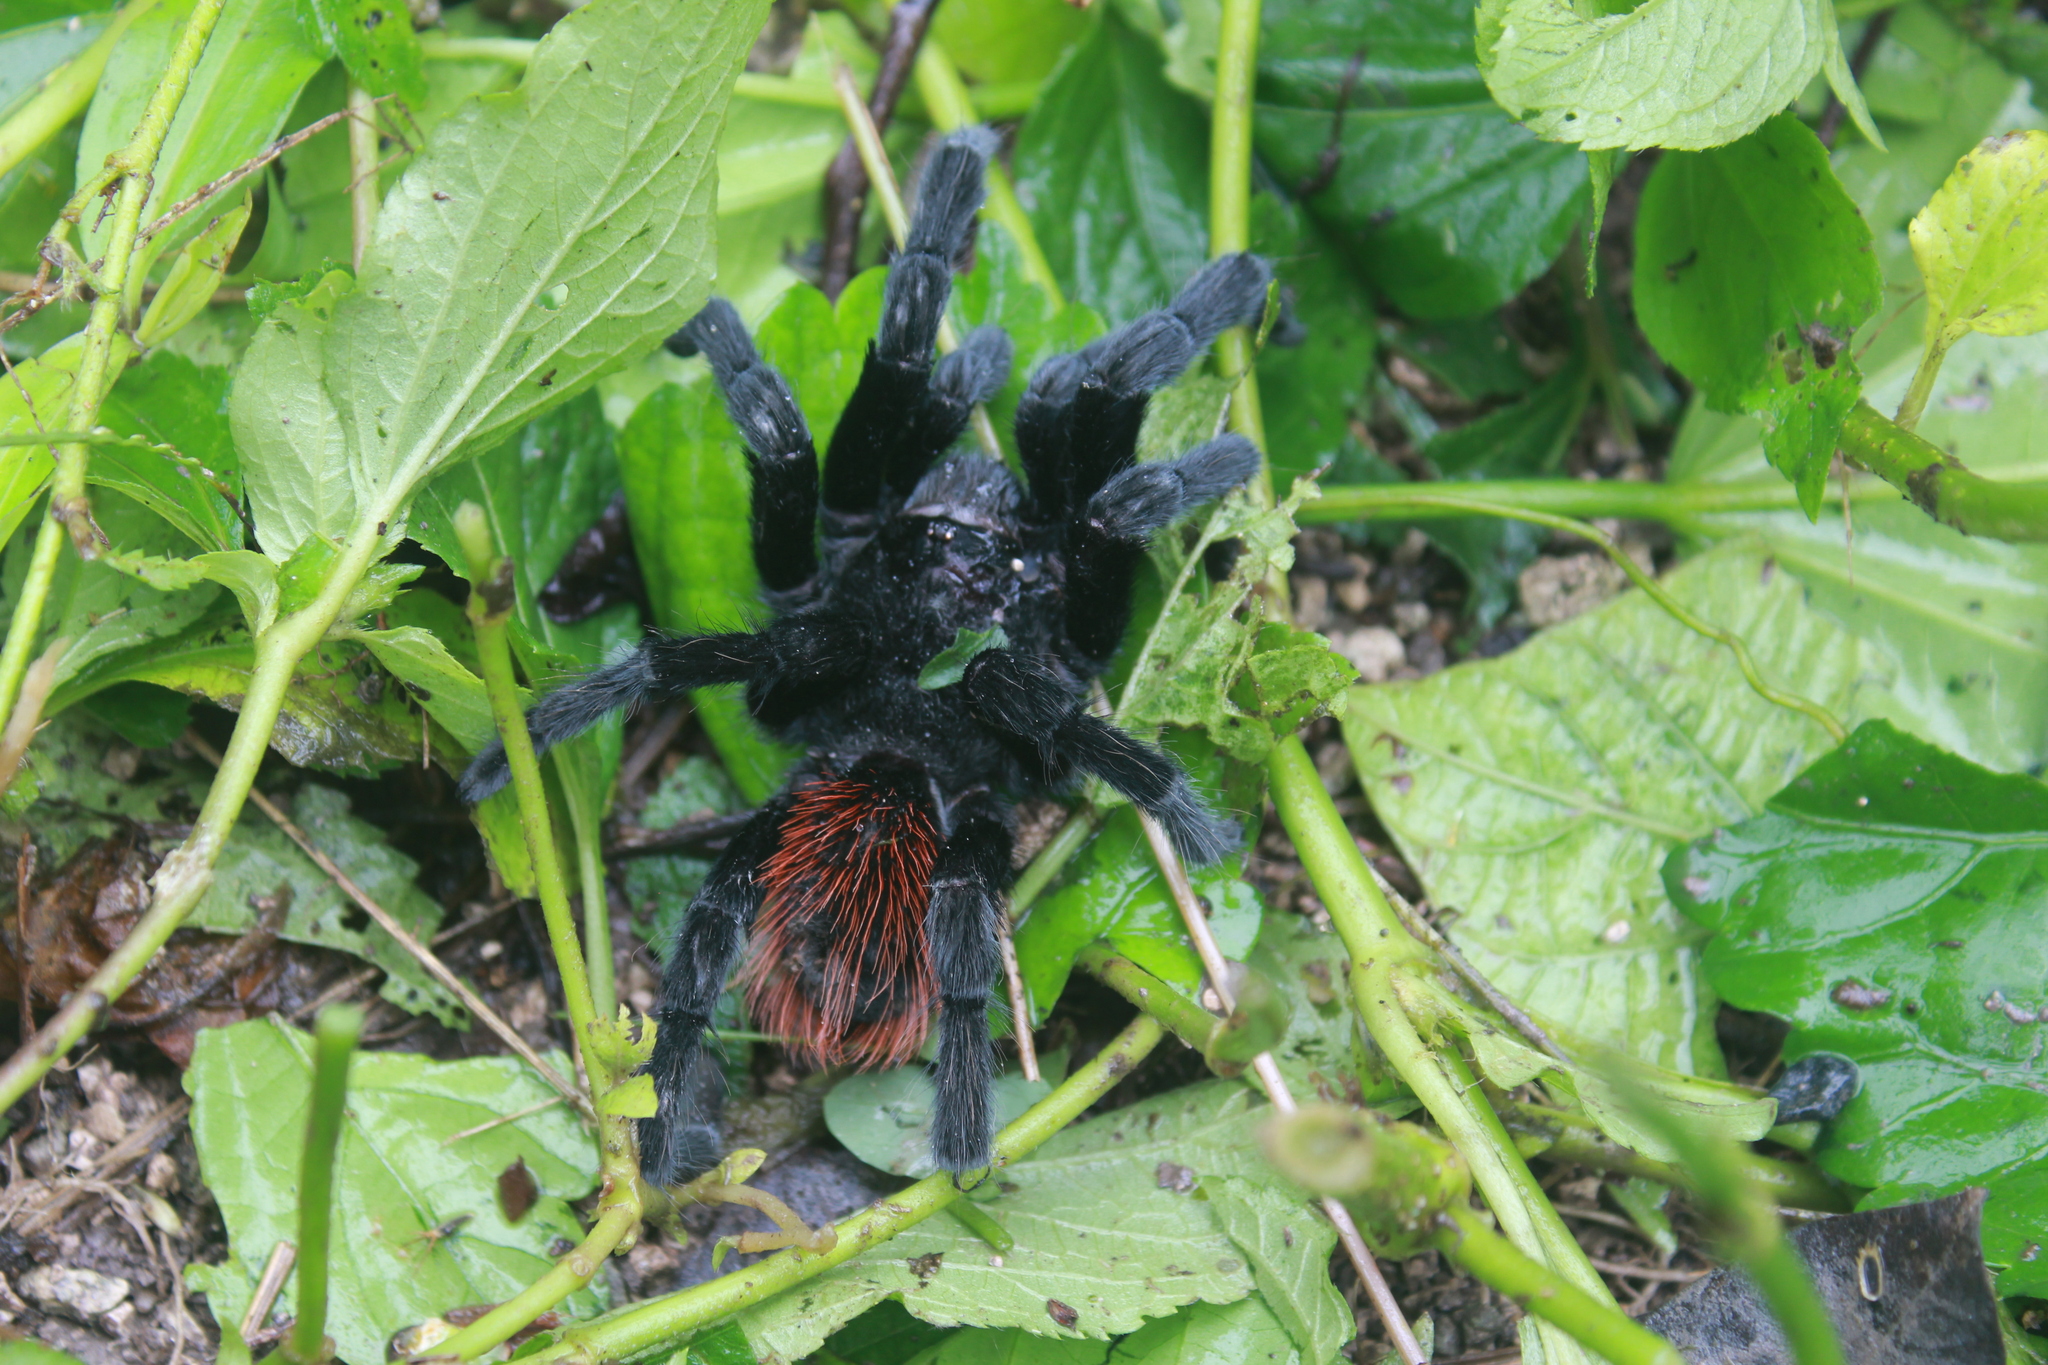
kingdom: Animalia
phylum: Arthropoda
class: Arachnida
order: Araneae
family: Theraphosidae
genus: Tliltocatl
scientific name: Tliltocatl vagans
